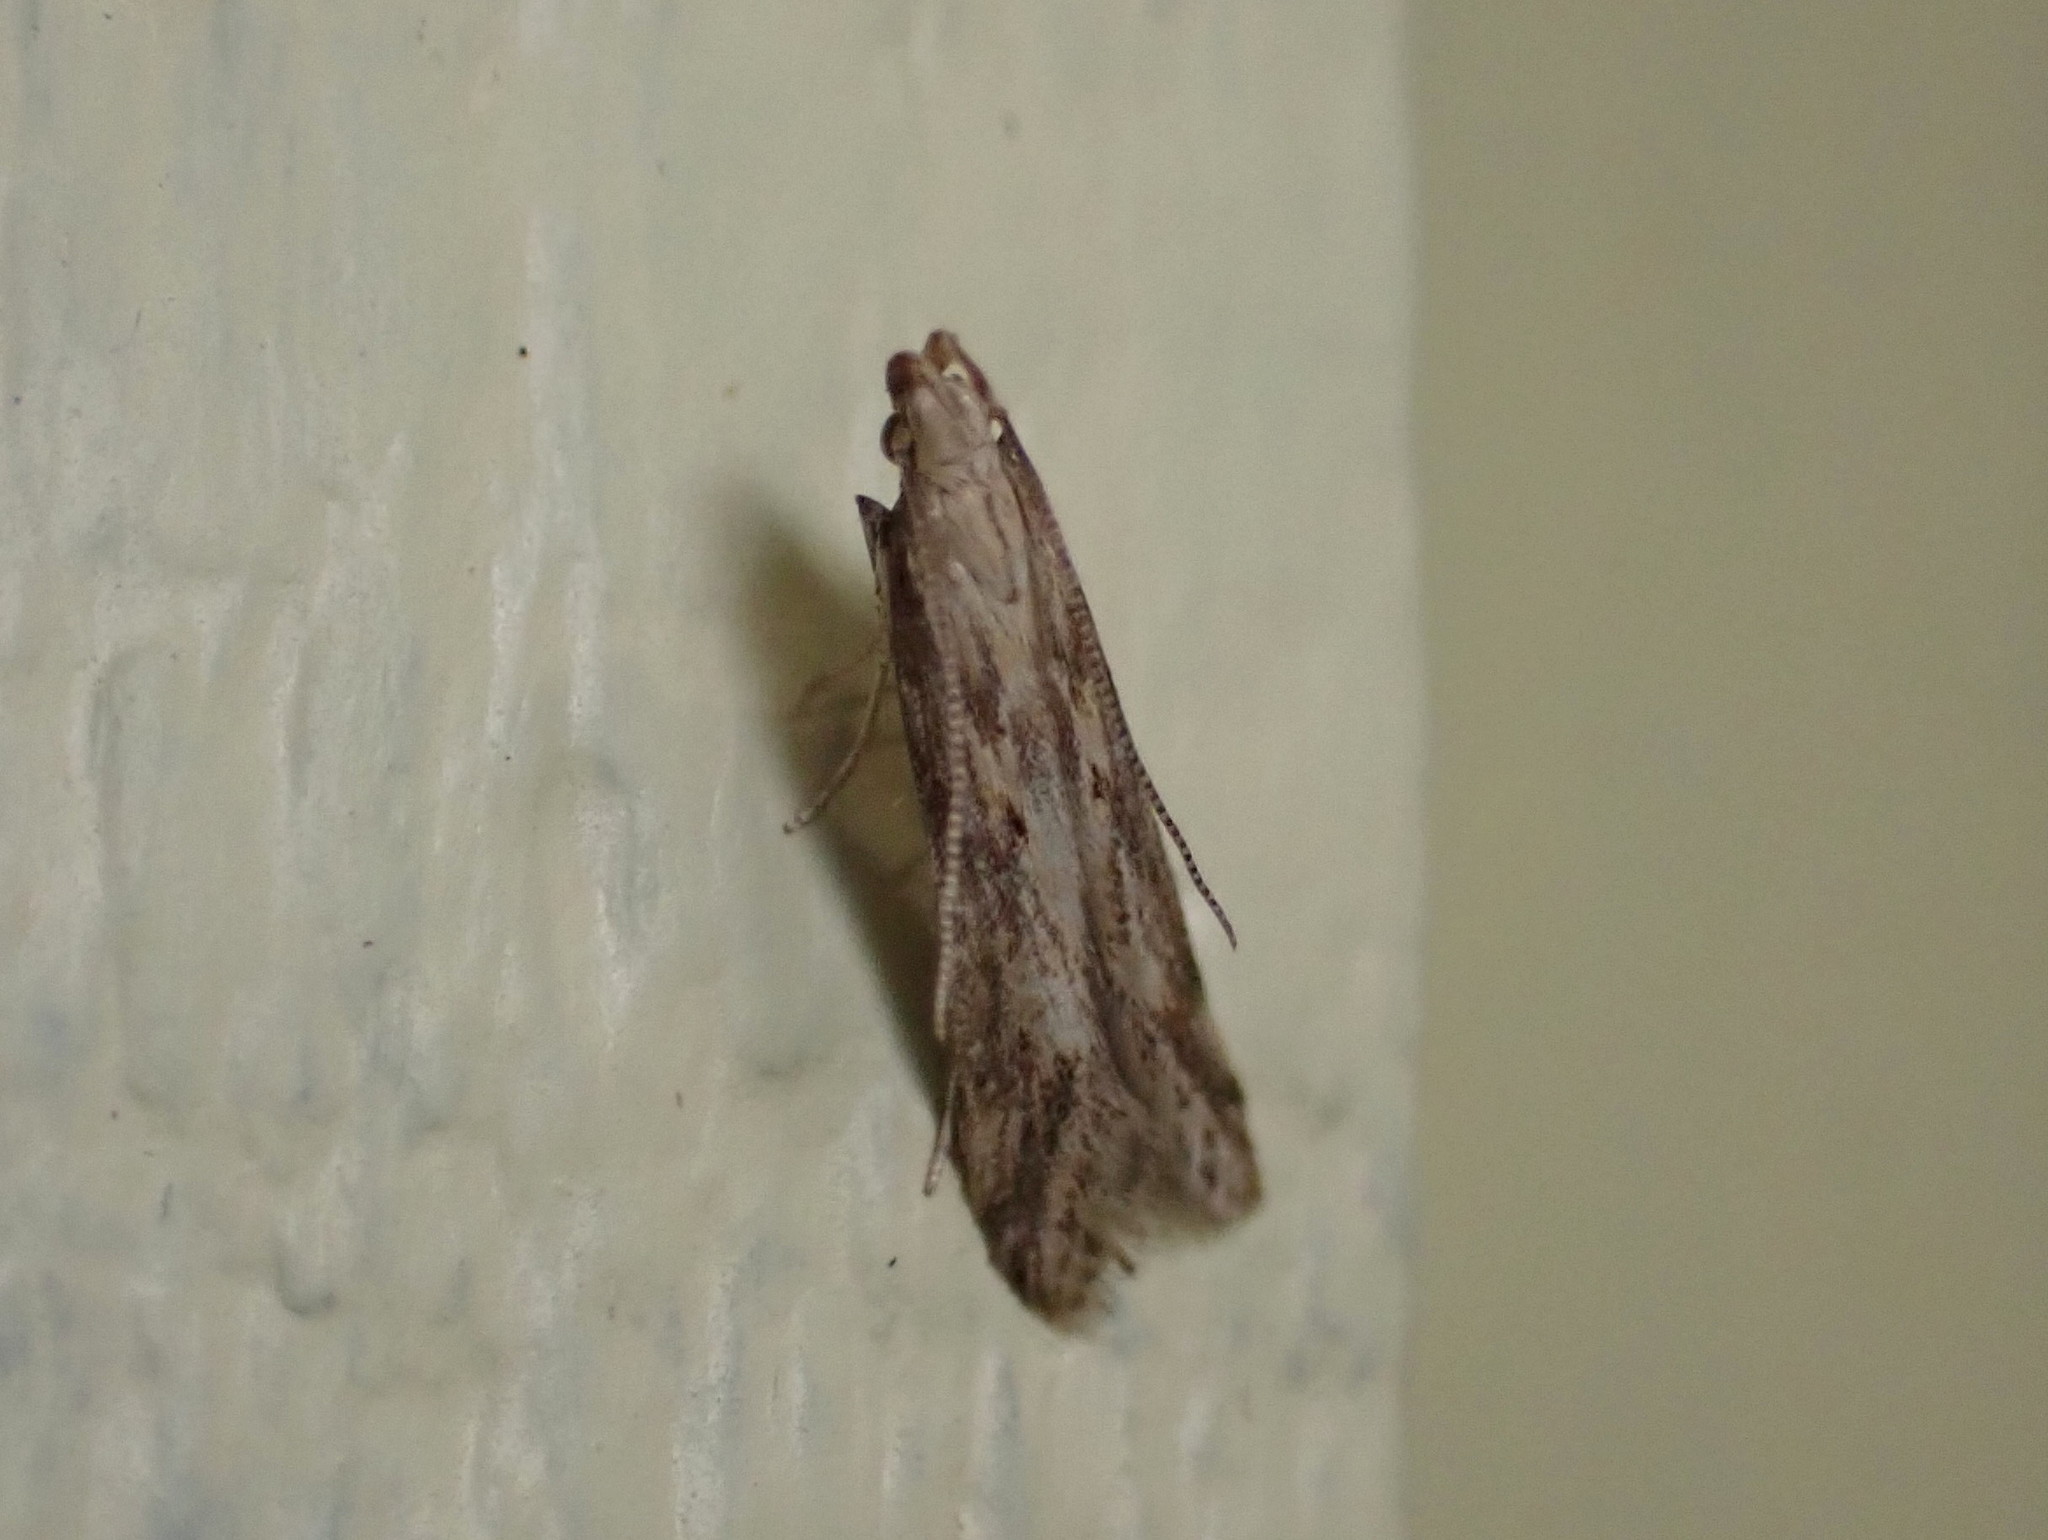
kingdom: Animalia
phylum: Arthropoda
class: Insecta
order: Lepidoptera
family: Gelechiidae
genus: Metzneria
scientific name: Metzneria lappella
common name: Burdock neb
